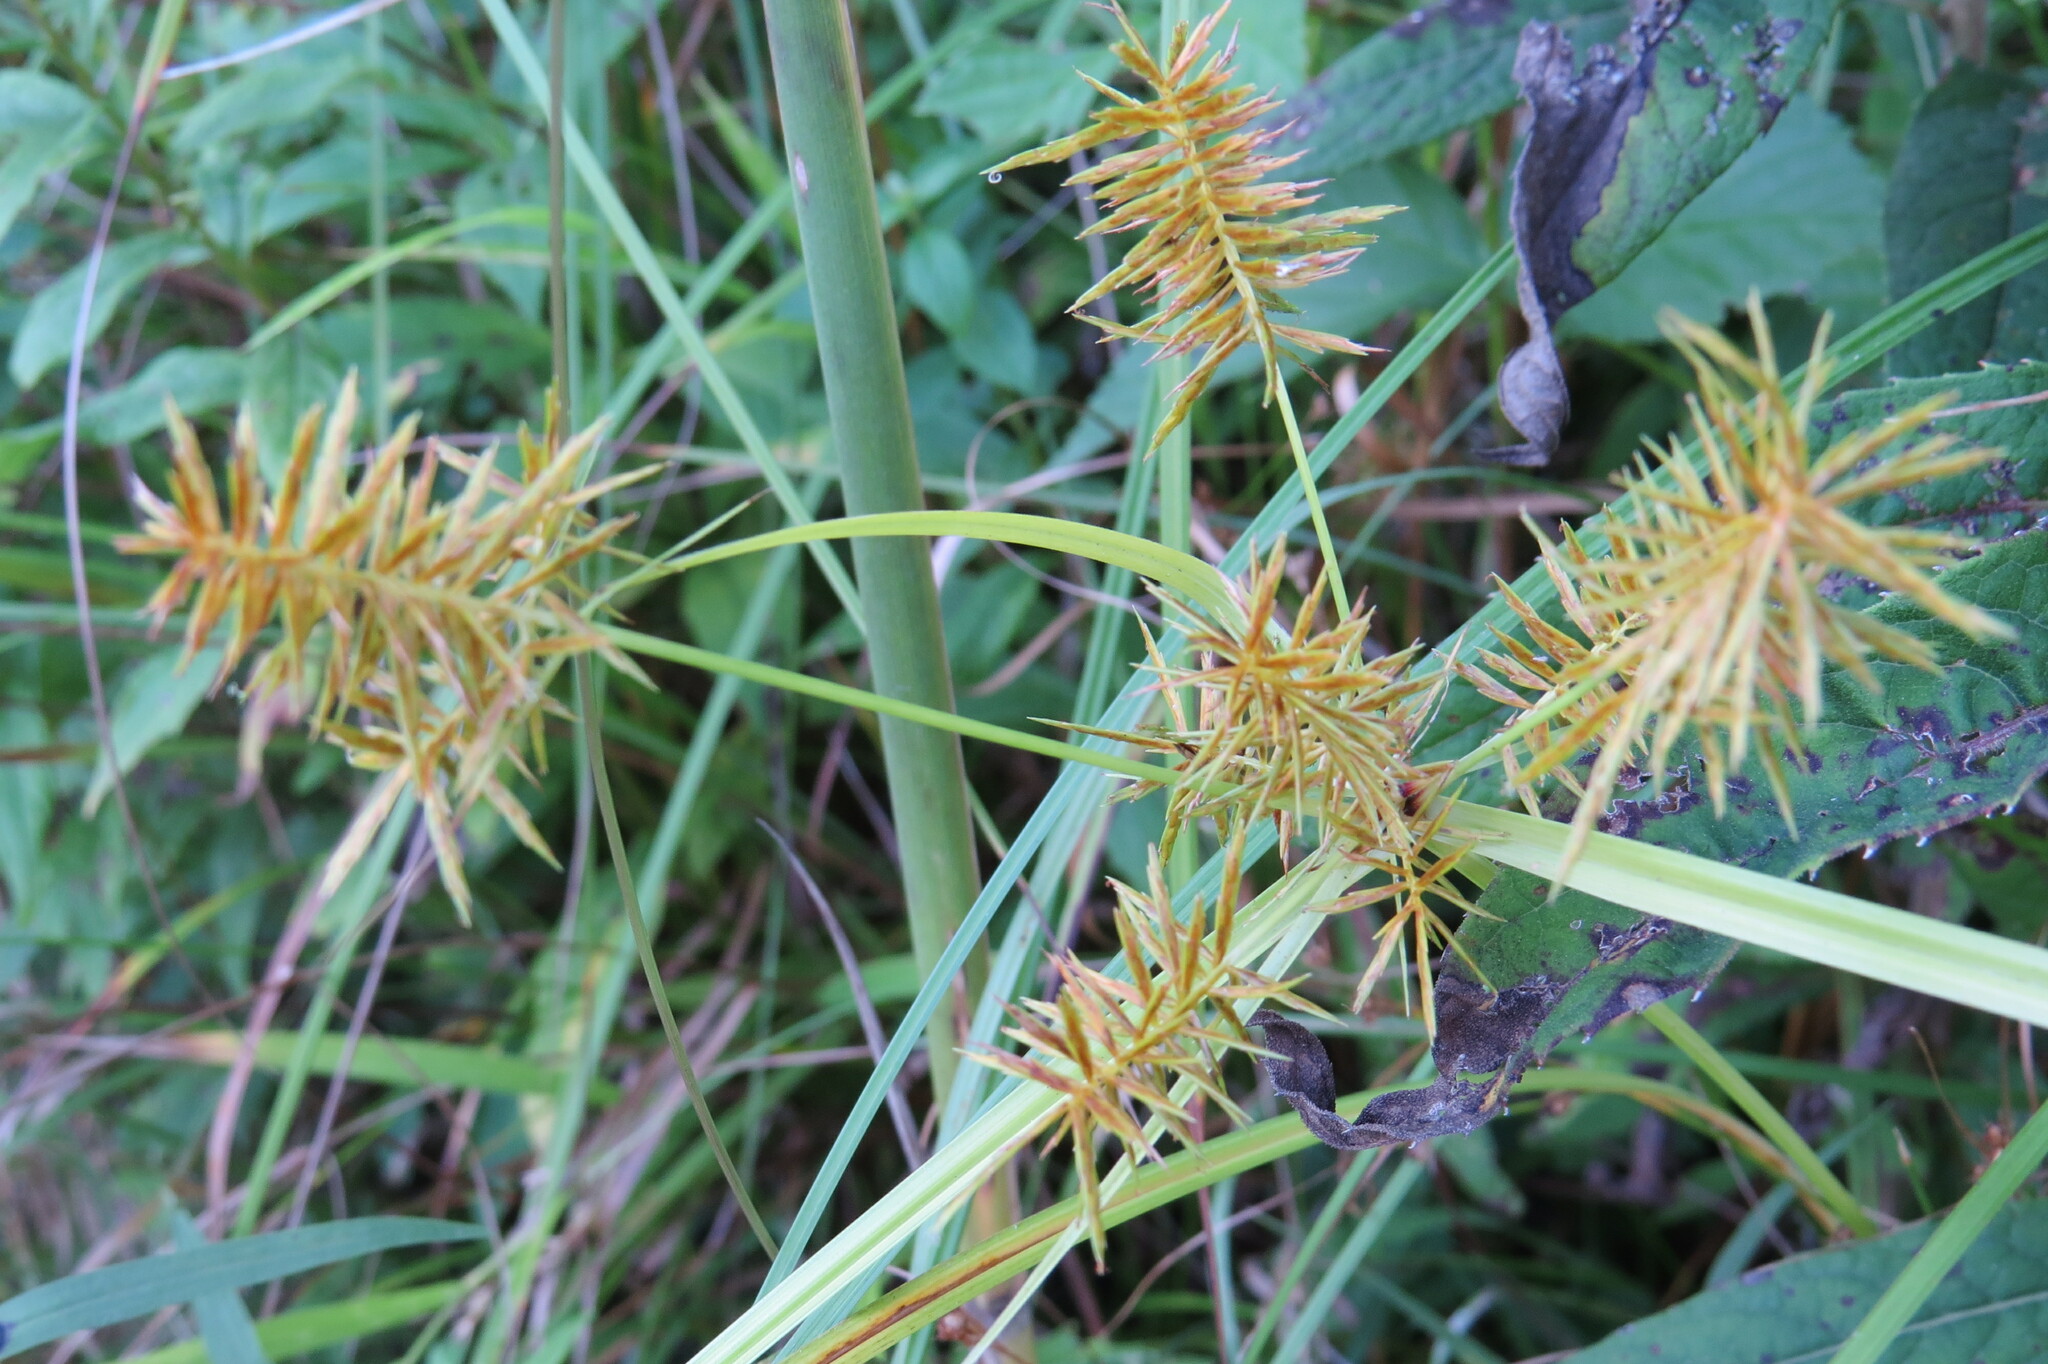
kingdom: Plantae
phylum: Tracheophyta
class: Liliopsida
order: Poales
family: Cyperaceae
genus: Cyperus
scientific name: Cyperus strigosus
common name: False nutsedge
